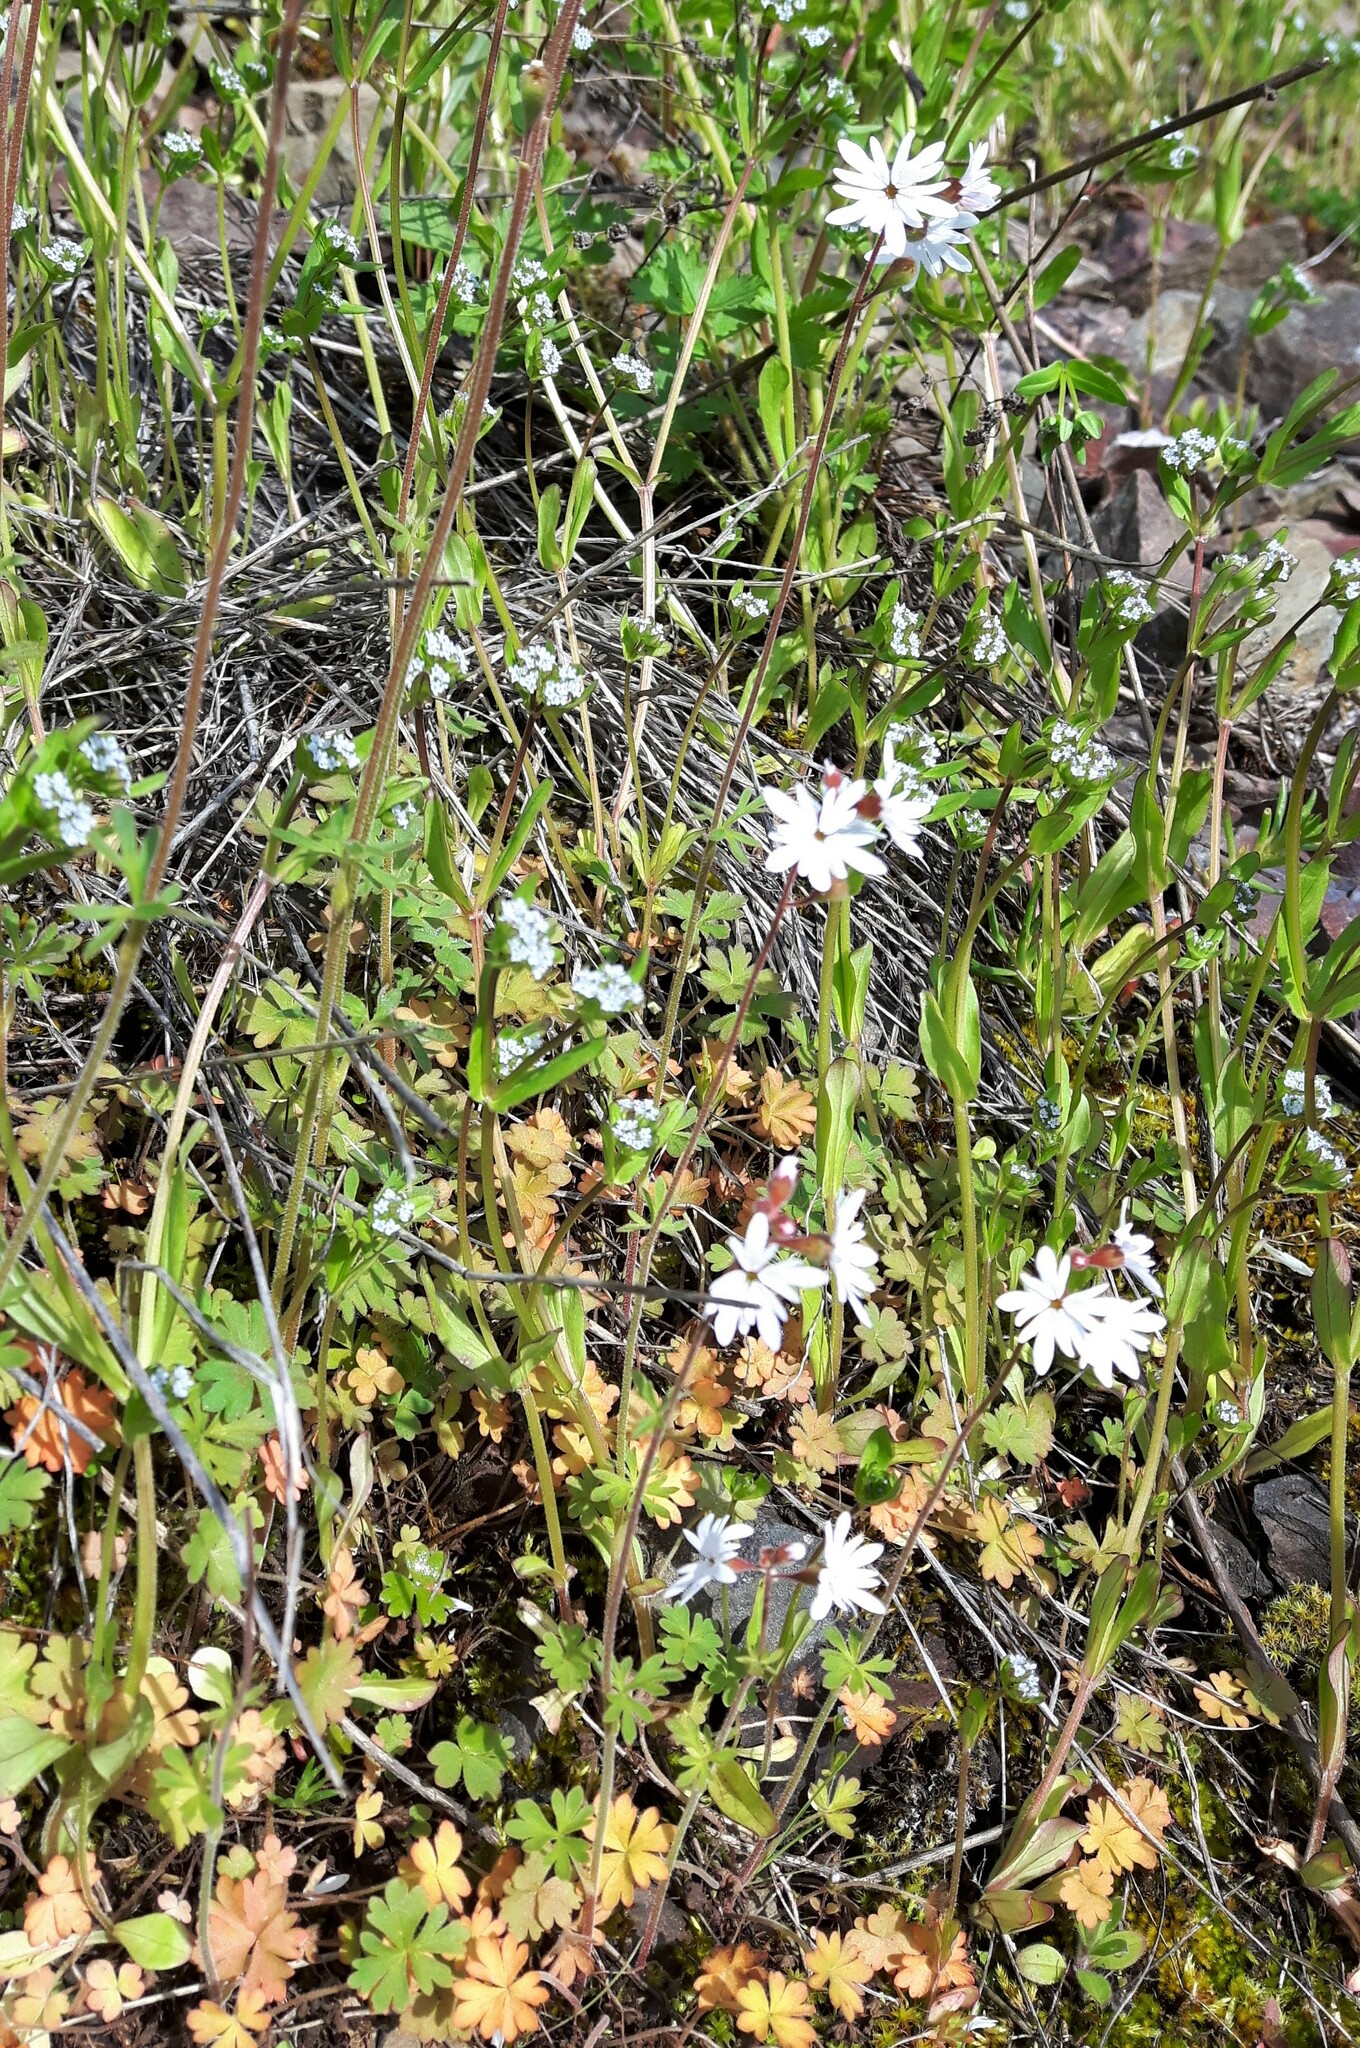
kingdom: Plantae
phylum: Tracheophyta
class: Magnoliopsida
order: Saxifragales
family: Saxifragaceae
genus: Lithophragma
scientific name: Lithophragma parviflorum
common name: Small-flowered fringe-cup
